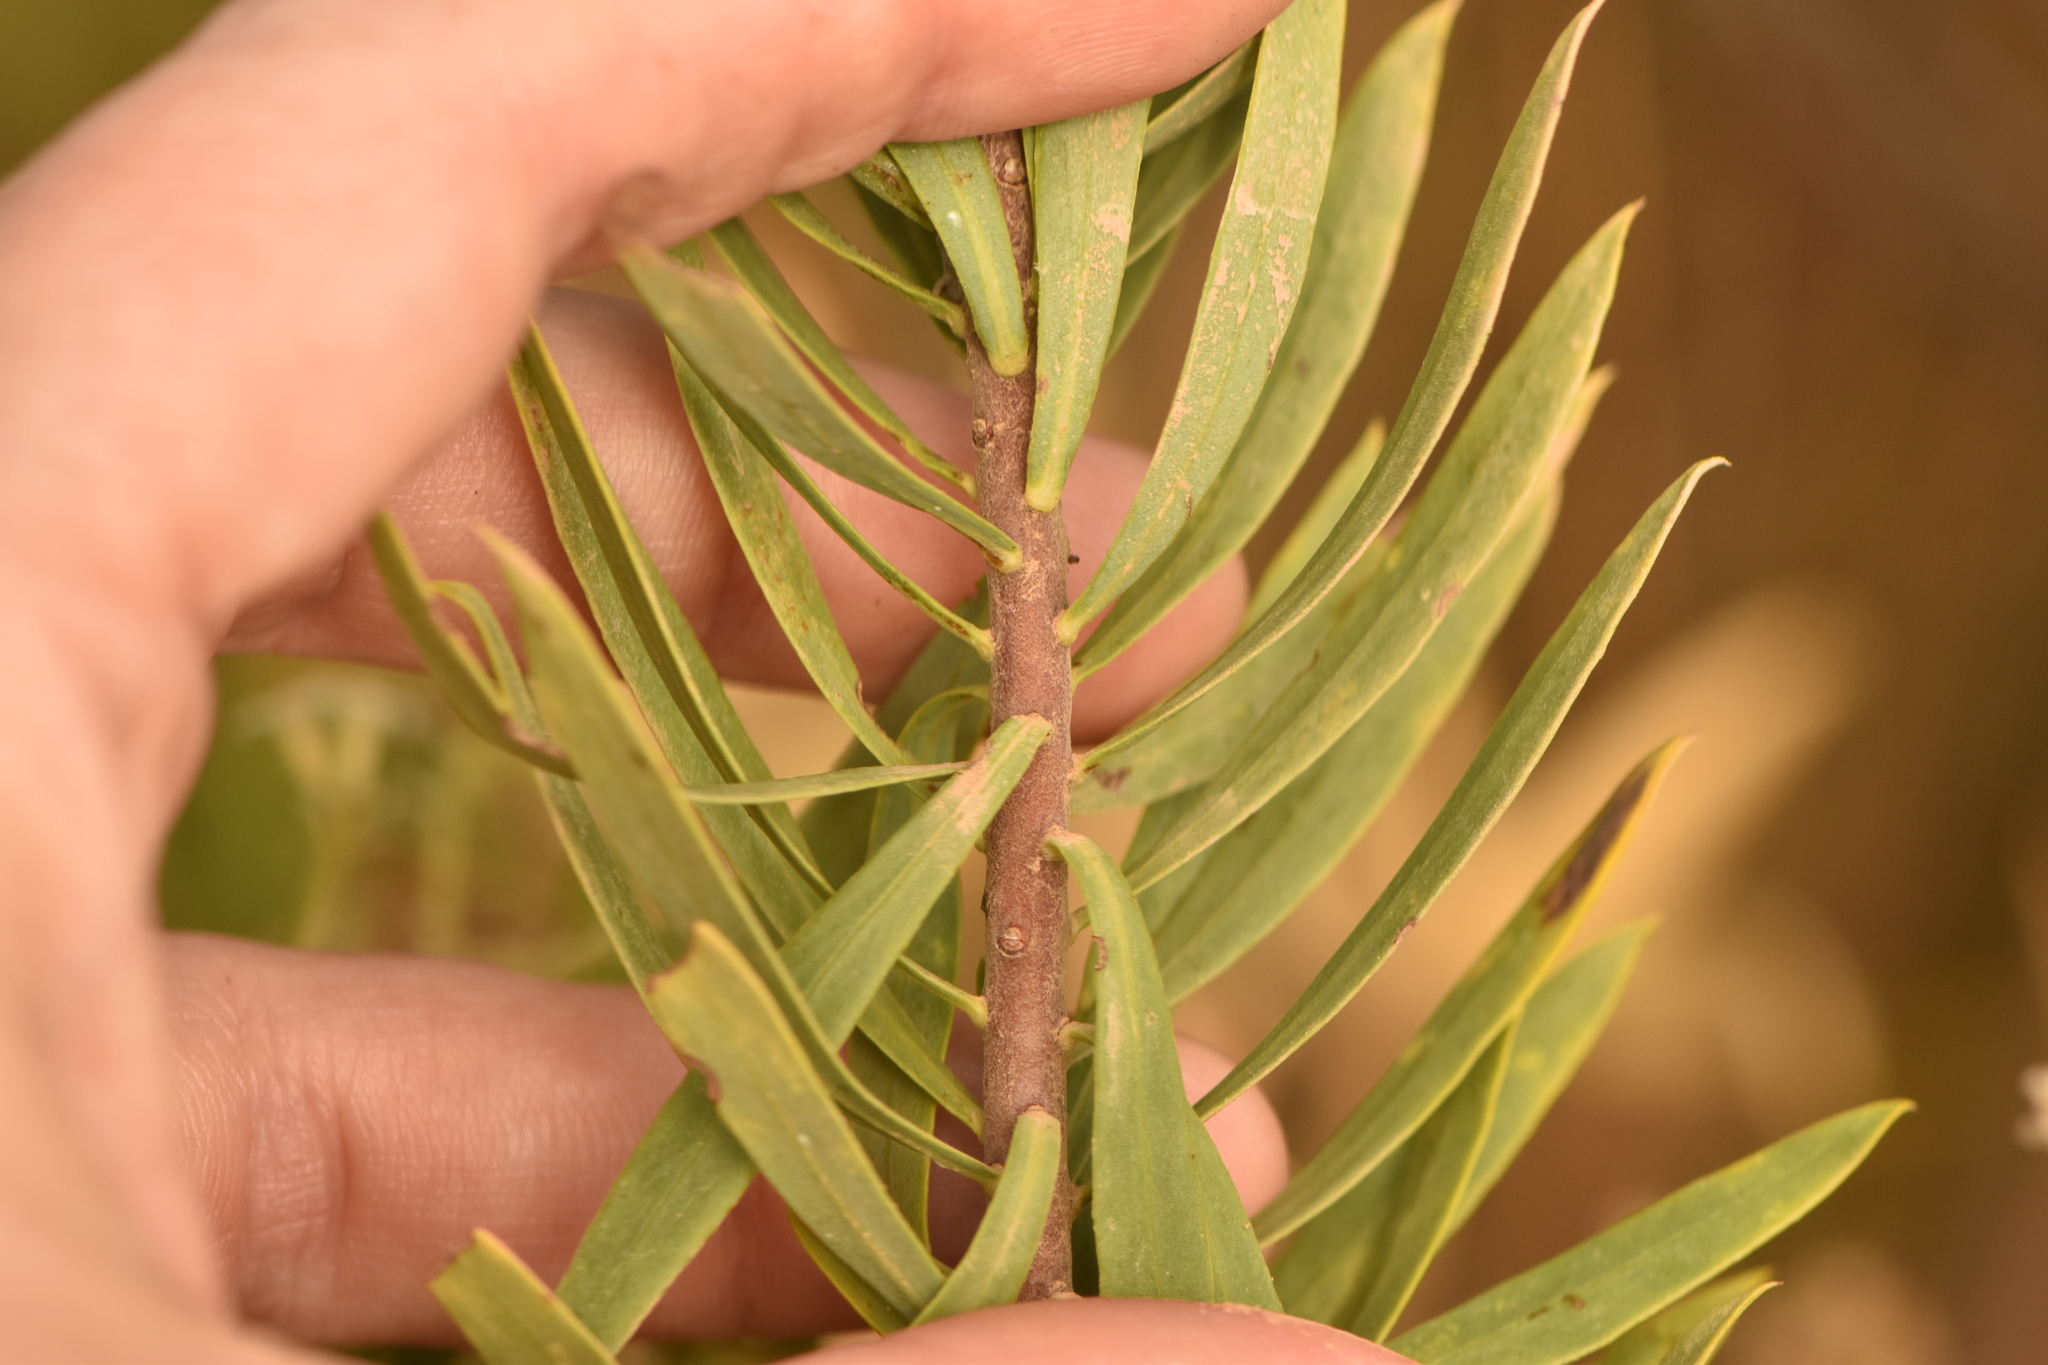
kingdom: Plantae
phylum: Tracheophyta
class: Magnoliopsida
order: Malvales
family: Thymelaeaceae
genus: Daphne
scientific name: Daphne gnidium
